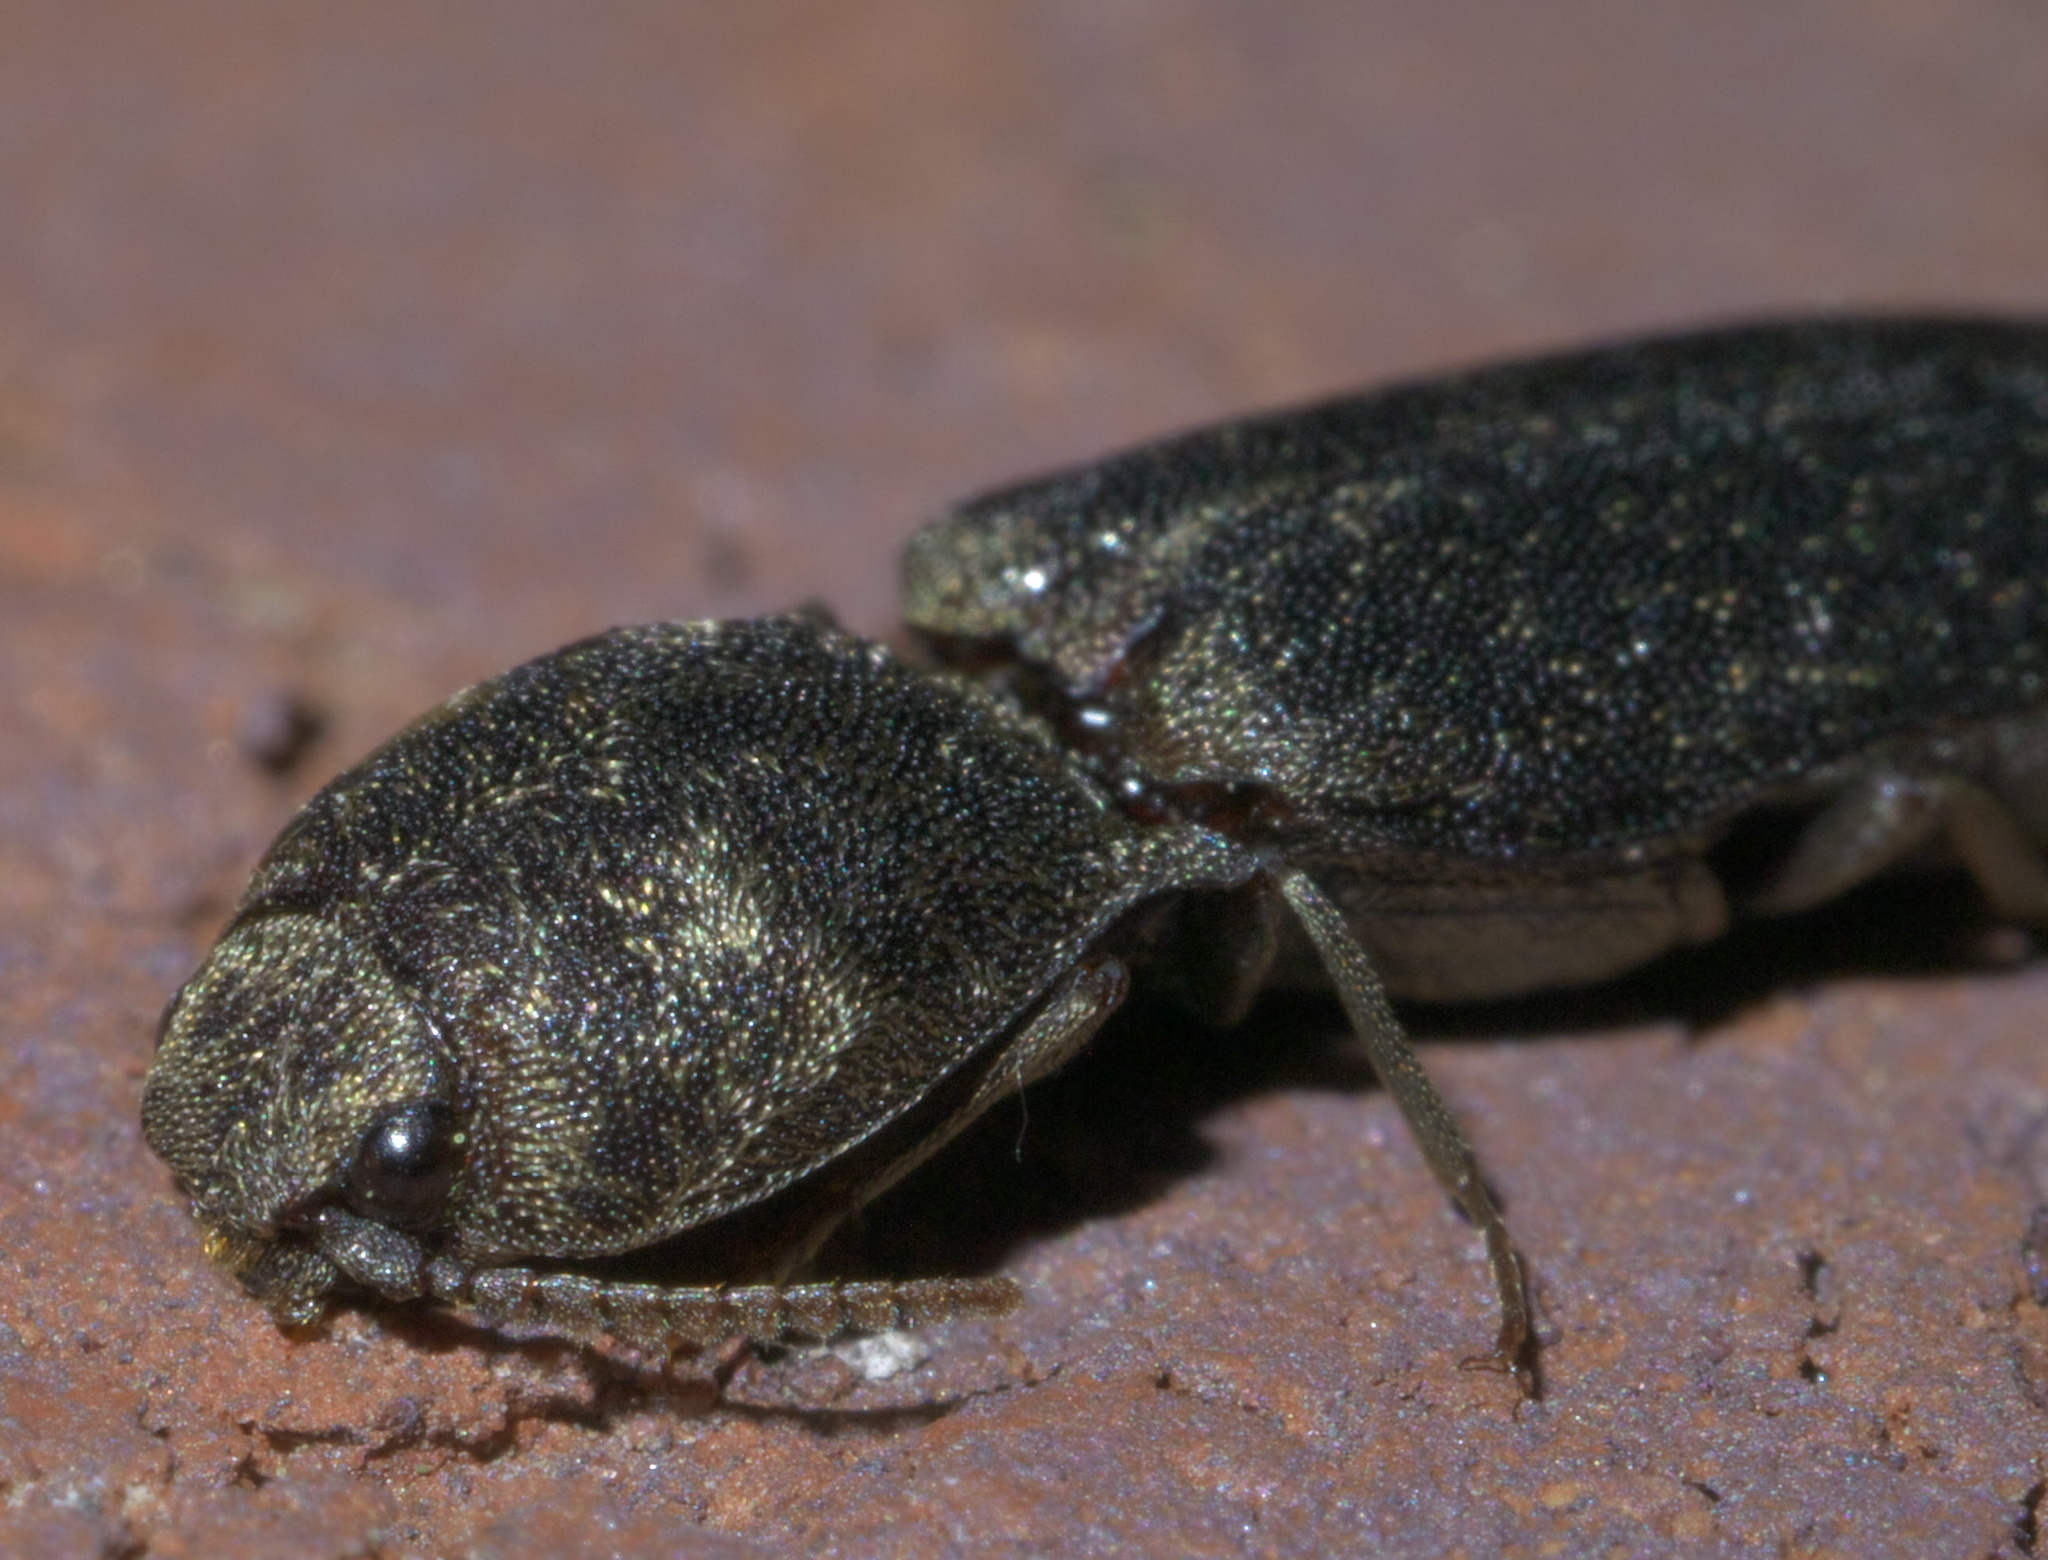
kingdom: Animalia
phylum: Arthropoda
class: Insecta
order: Coleoptera
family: Elateridae
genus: Lacon
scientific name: Lacon avitus
